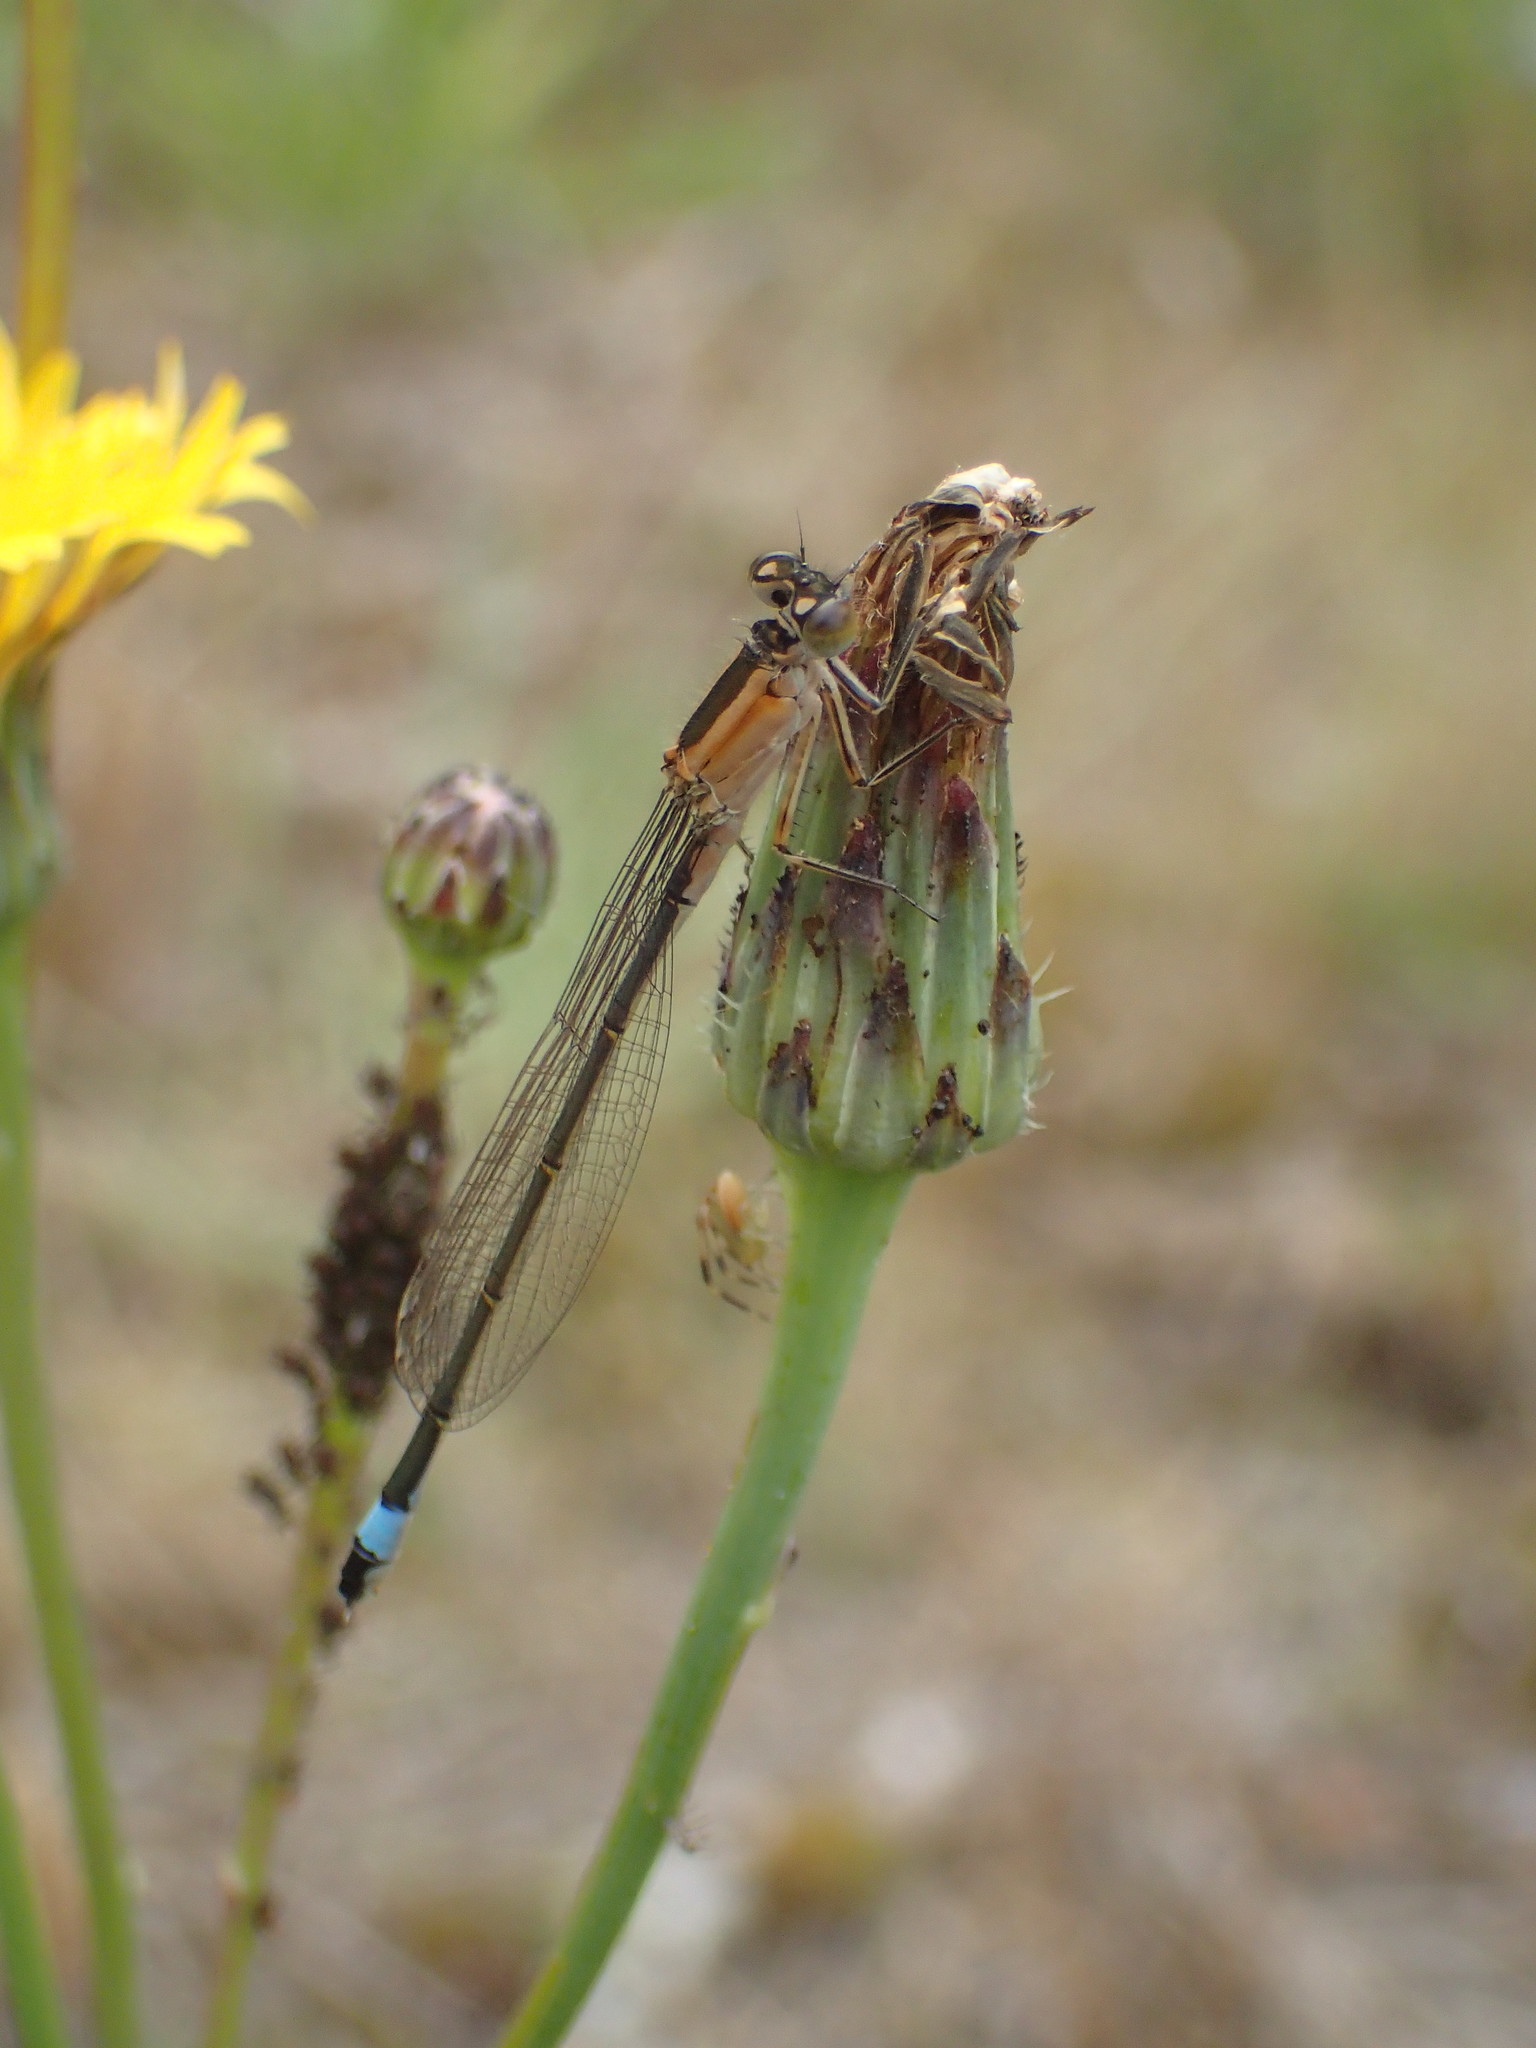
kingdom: Animalia
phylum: Arthropoda
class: Insecta
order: Odonata
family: Coenagrionidae
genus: Ischnura
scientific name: Ischnura elegans
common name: Blue-tailed damselfly
